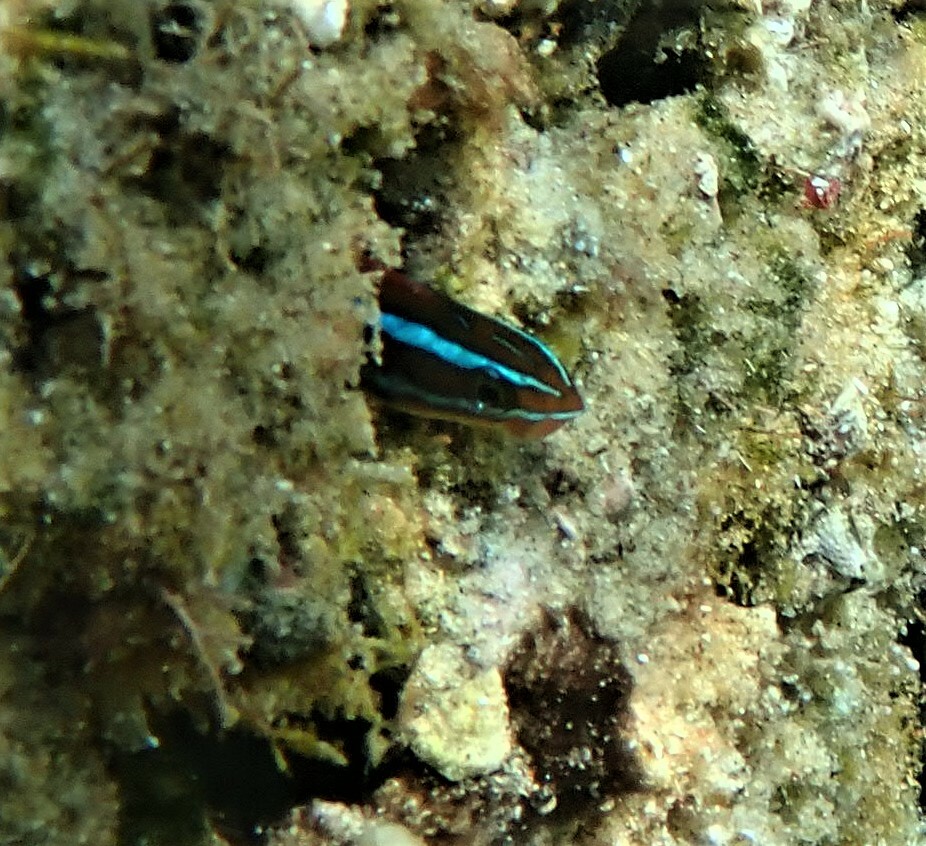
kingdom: Animalia
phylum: Chordata
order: Perciformes
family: Blenniidae
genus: Plagiotremus
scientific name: Plagiotremus rhinorhynchos
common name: Bluestriped fangblenny
